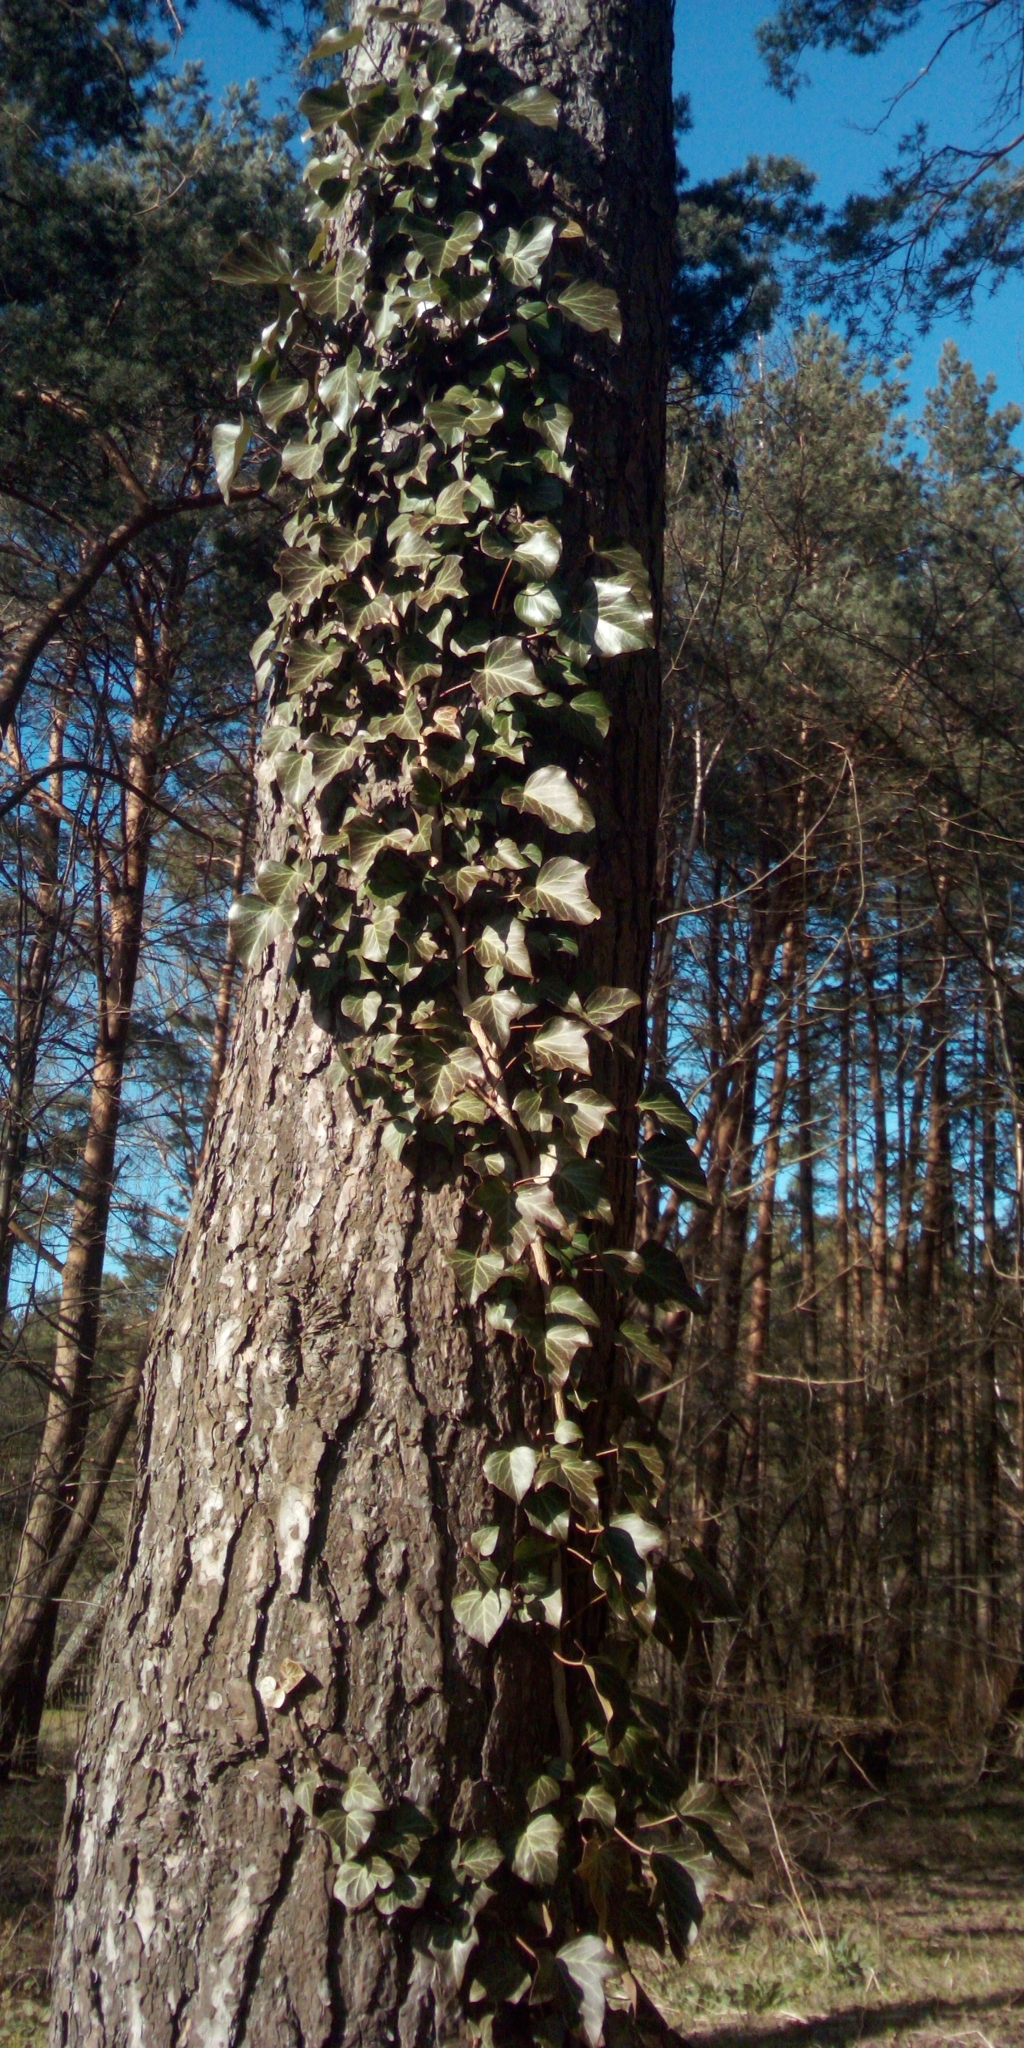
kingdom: Plantae
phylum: Tracheophyta
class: Magnoliopsida
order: Apiales
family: Araliaceae
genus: Hedera
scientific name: Hedera helix
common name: Ivy
